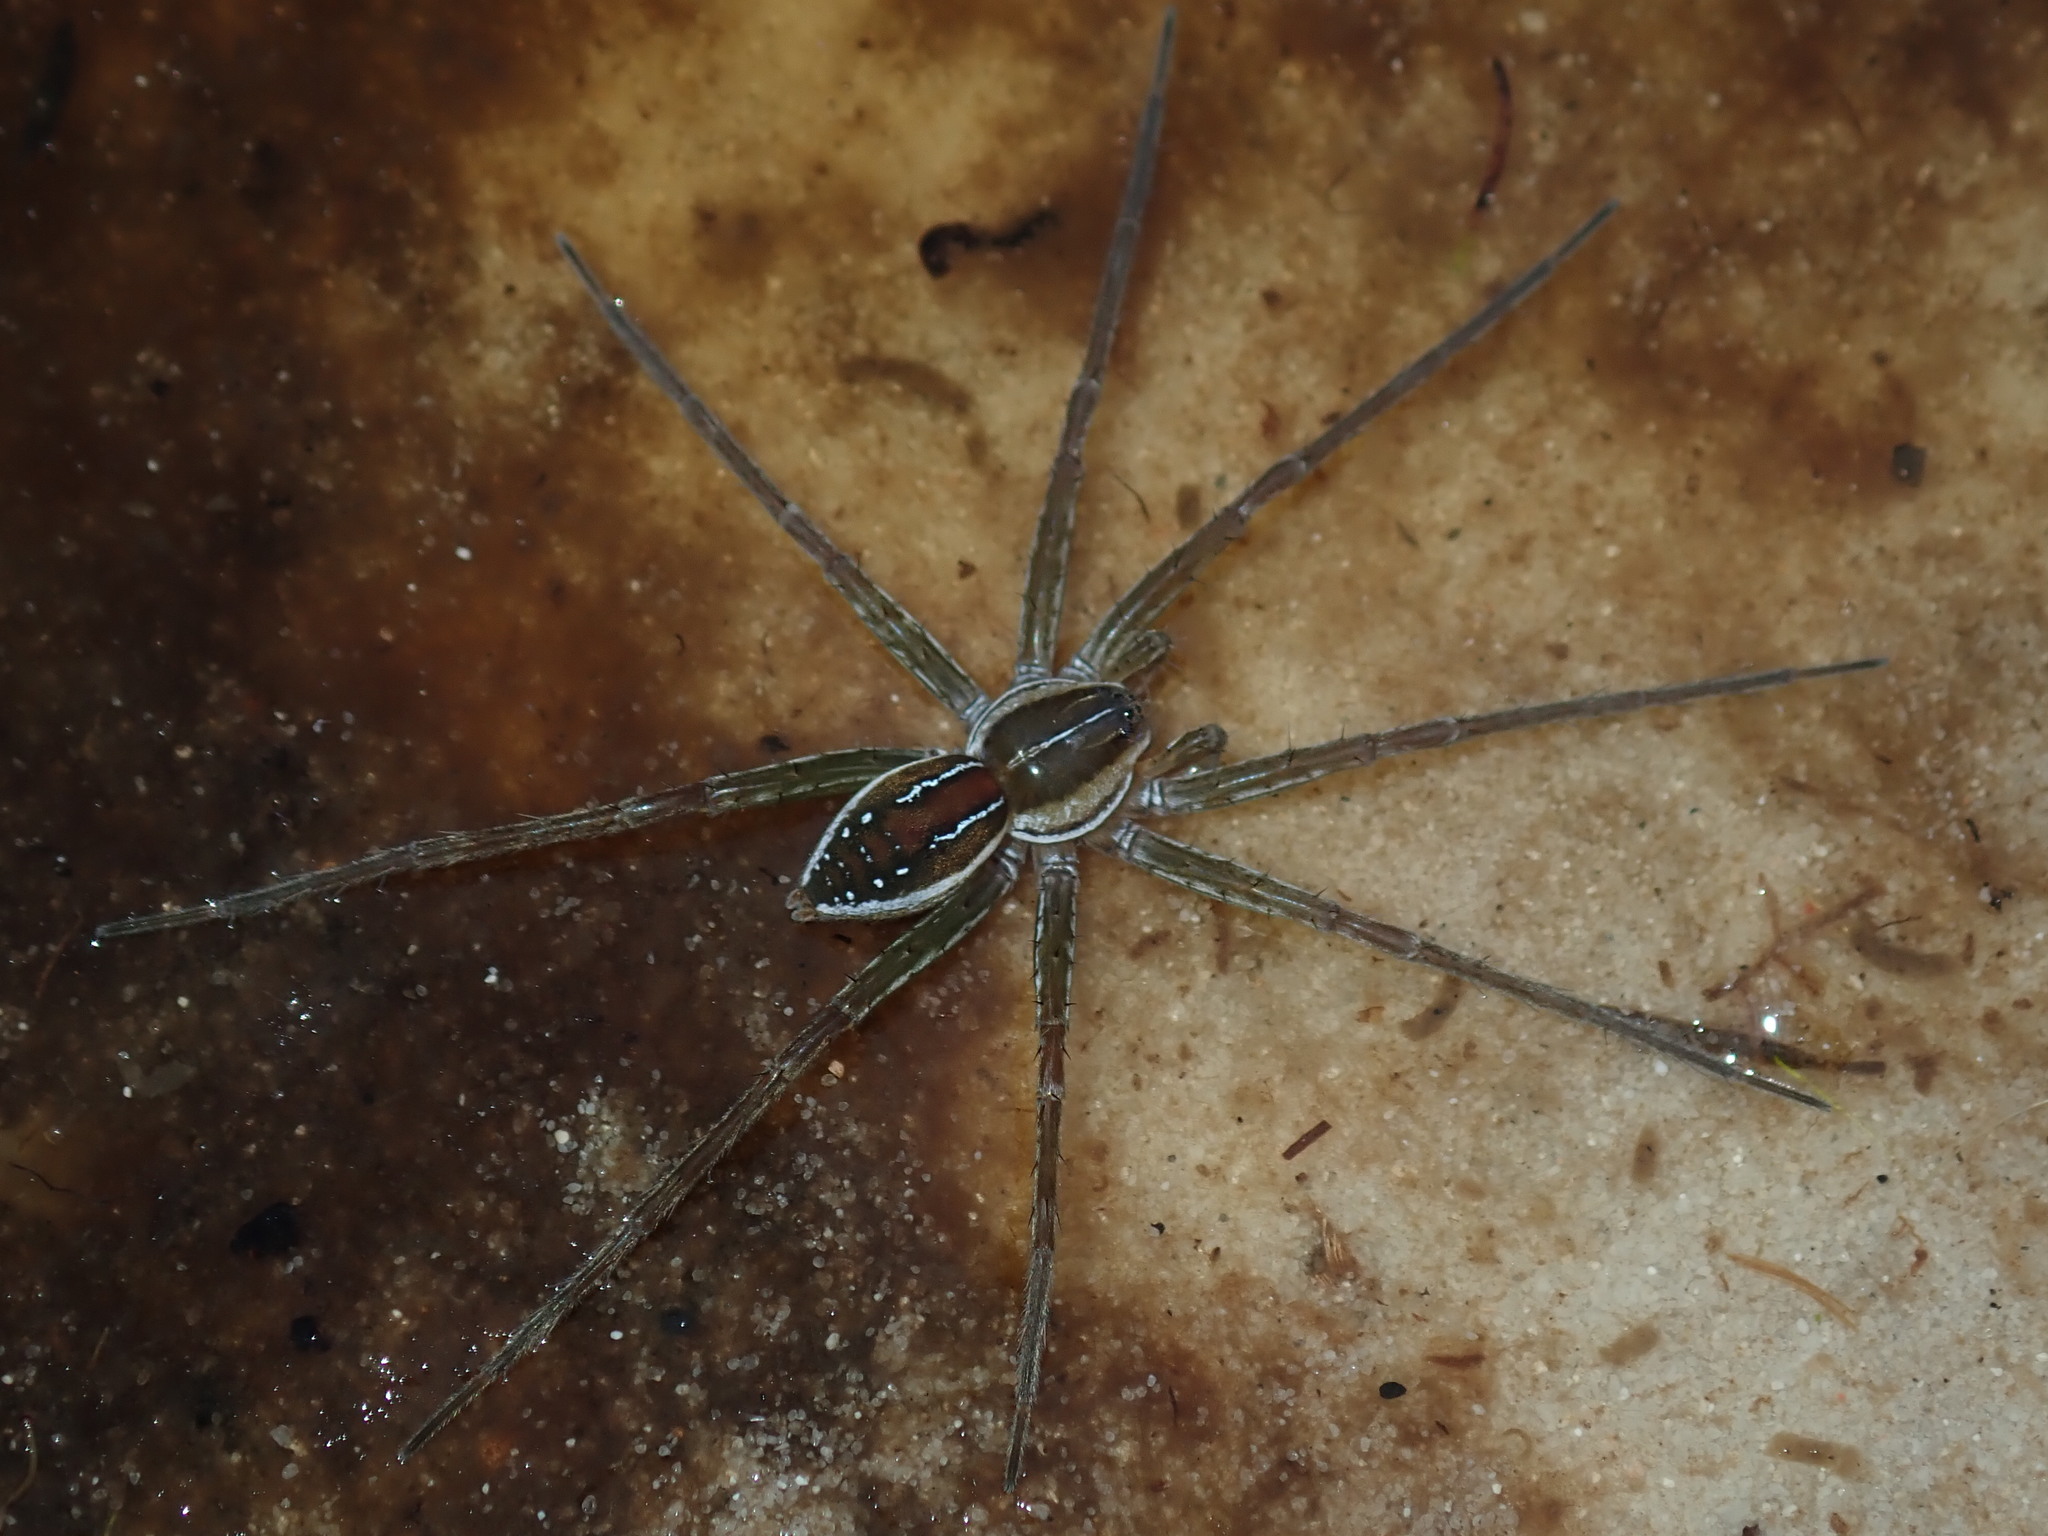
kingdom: Animalia
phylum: Arthropoda
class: Arachnida
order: Araneae
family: Pisauridae
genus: Dolomedes
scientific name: Dolomedes facetus
